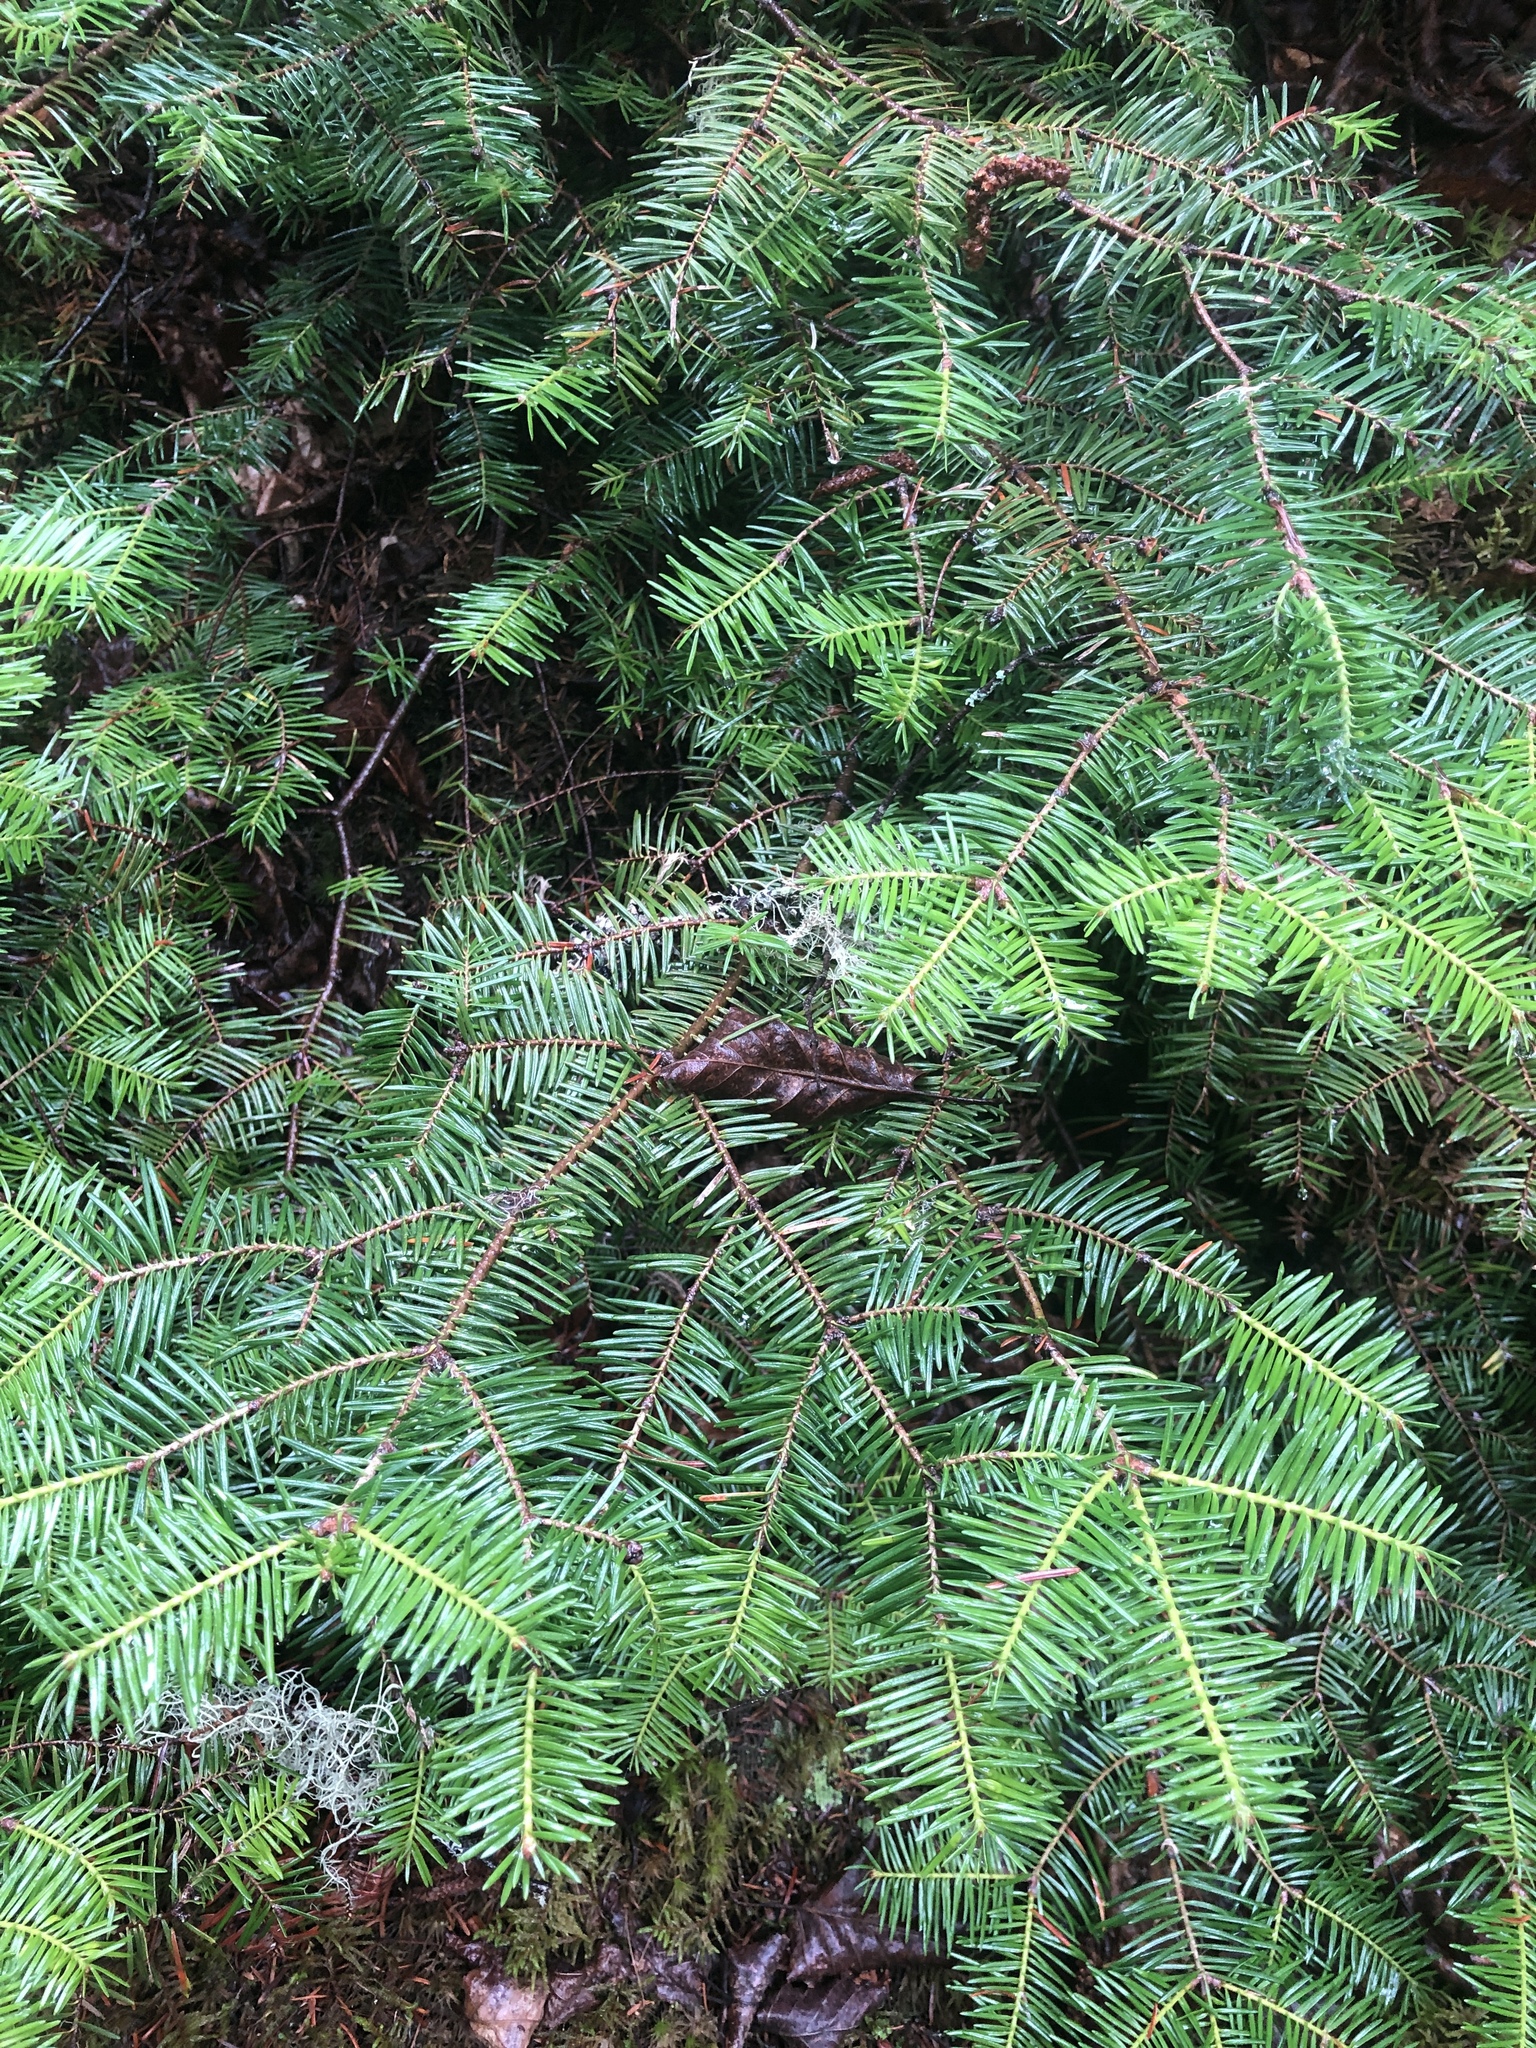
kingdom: Plantae
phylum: Tracheophyta
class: Pinopsida
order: Pinales
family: Pinaceae
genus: Abies
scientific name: Abies balsamea
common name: Balsam fir
